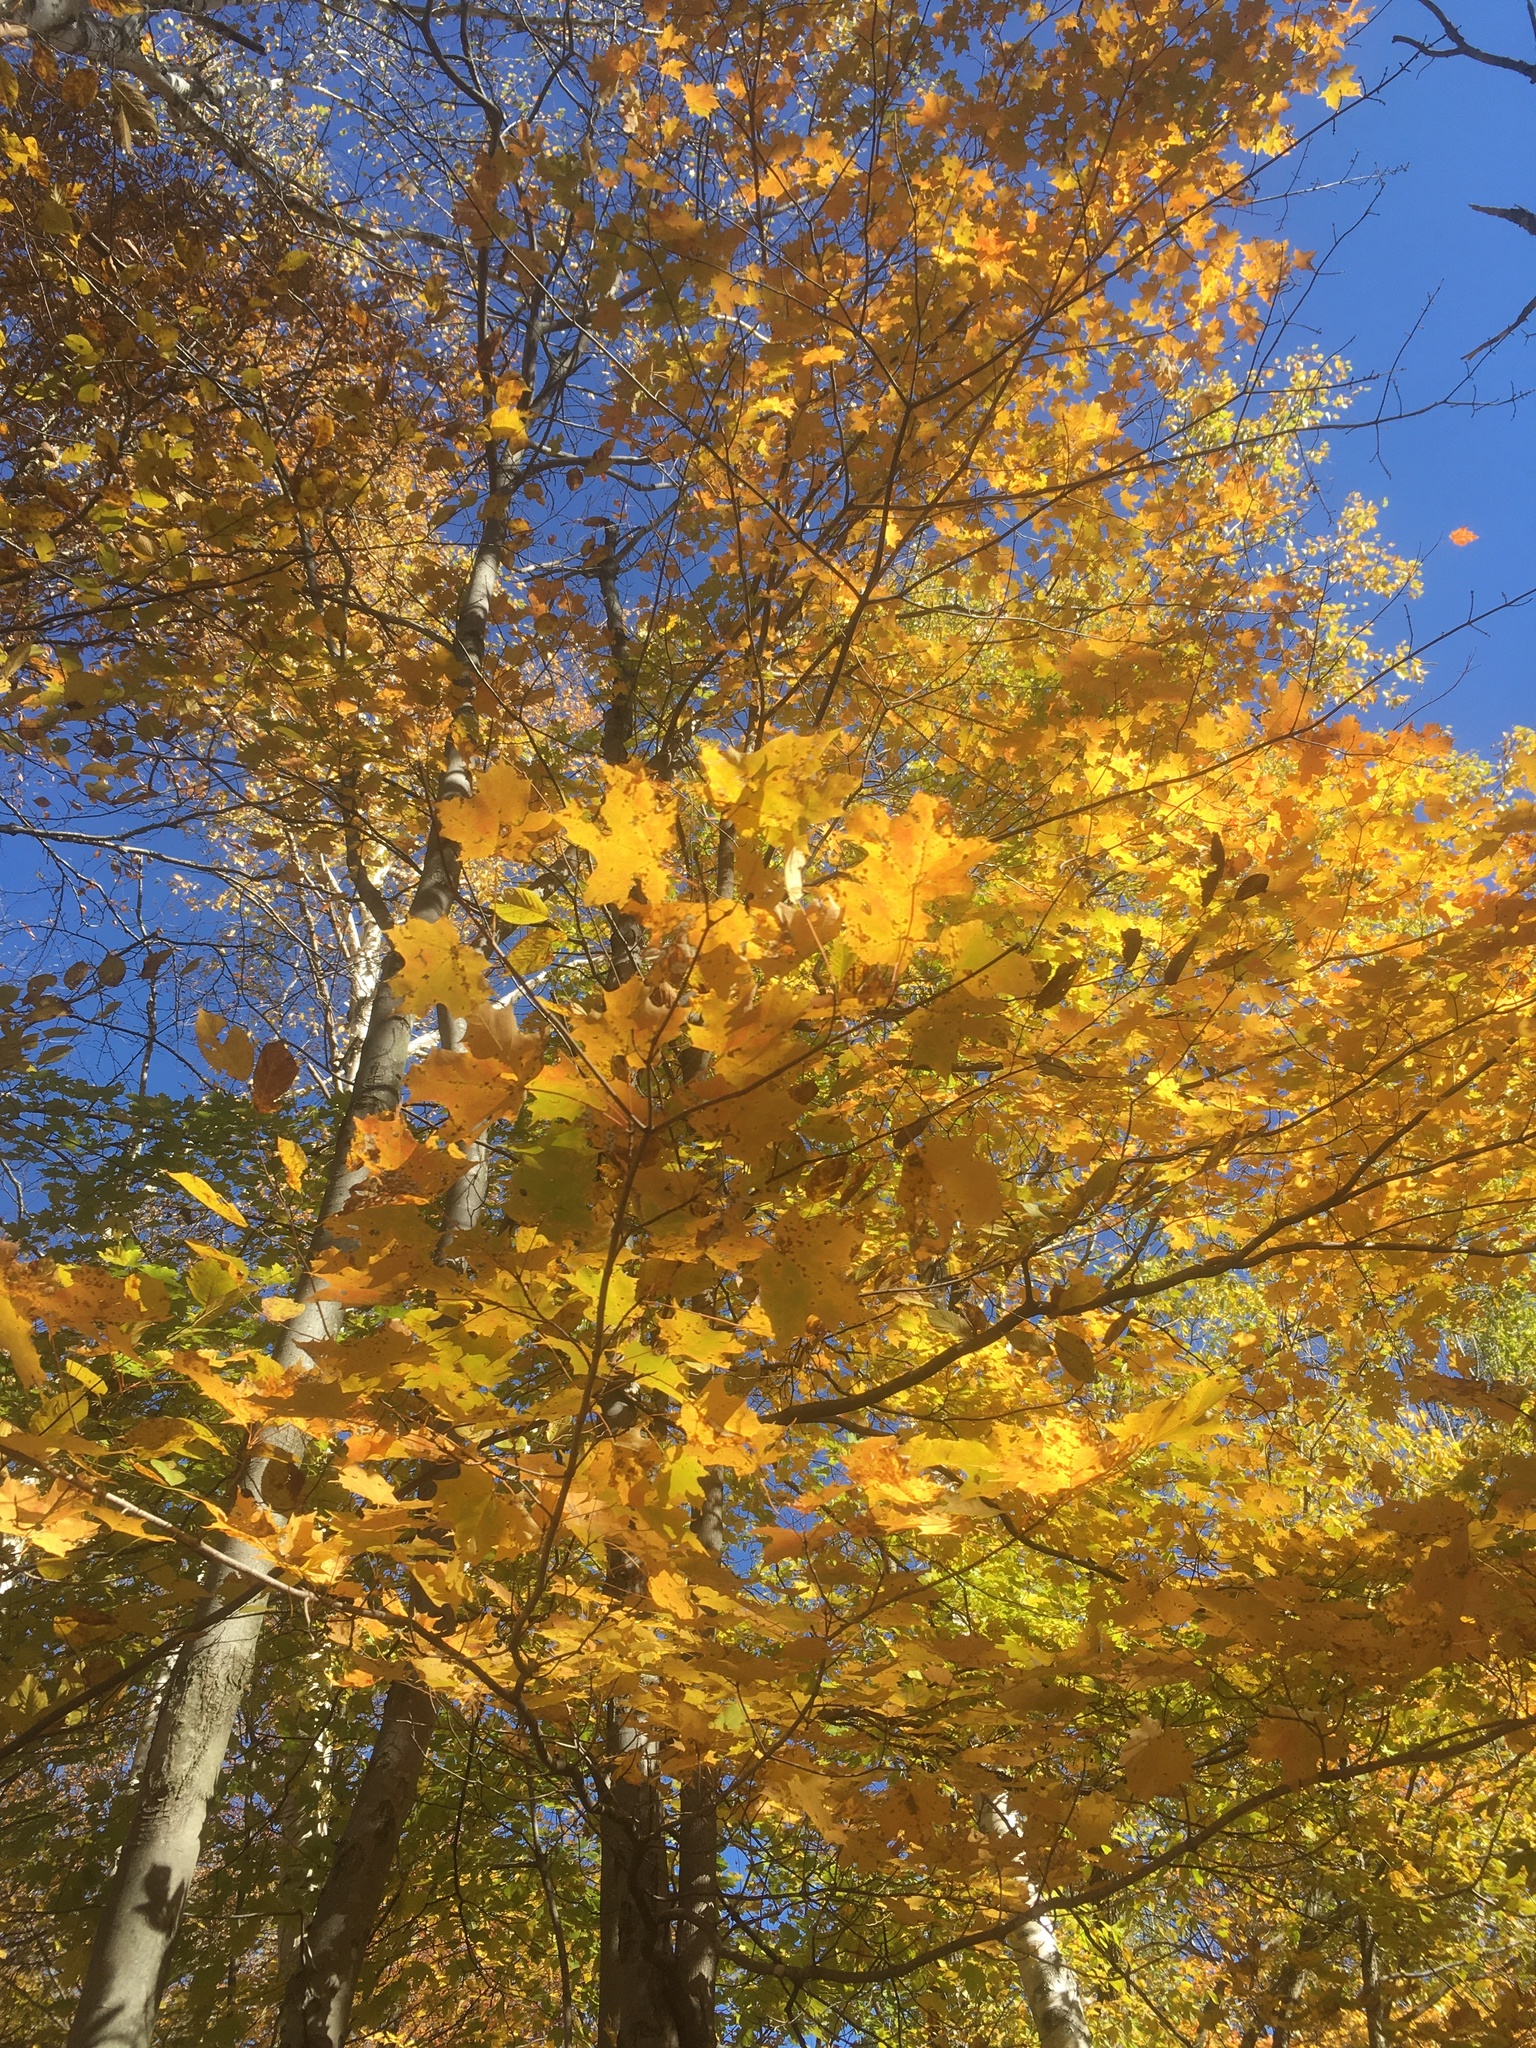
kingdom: Plantae
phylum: Tracheophyta
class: Magnoliopsida
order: Sapindales
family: Sapindaceae
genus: Acer
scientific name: Acer saccharum
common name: Sugar maple
